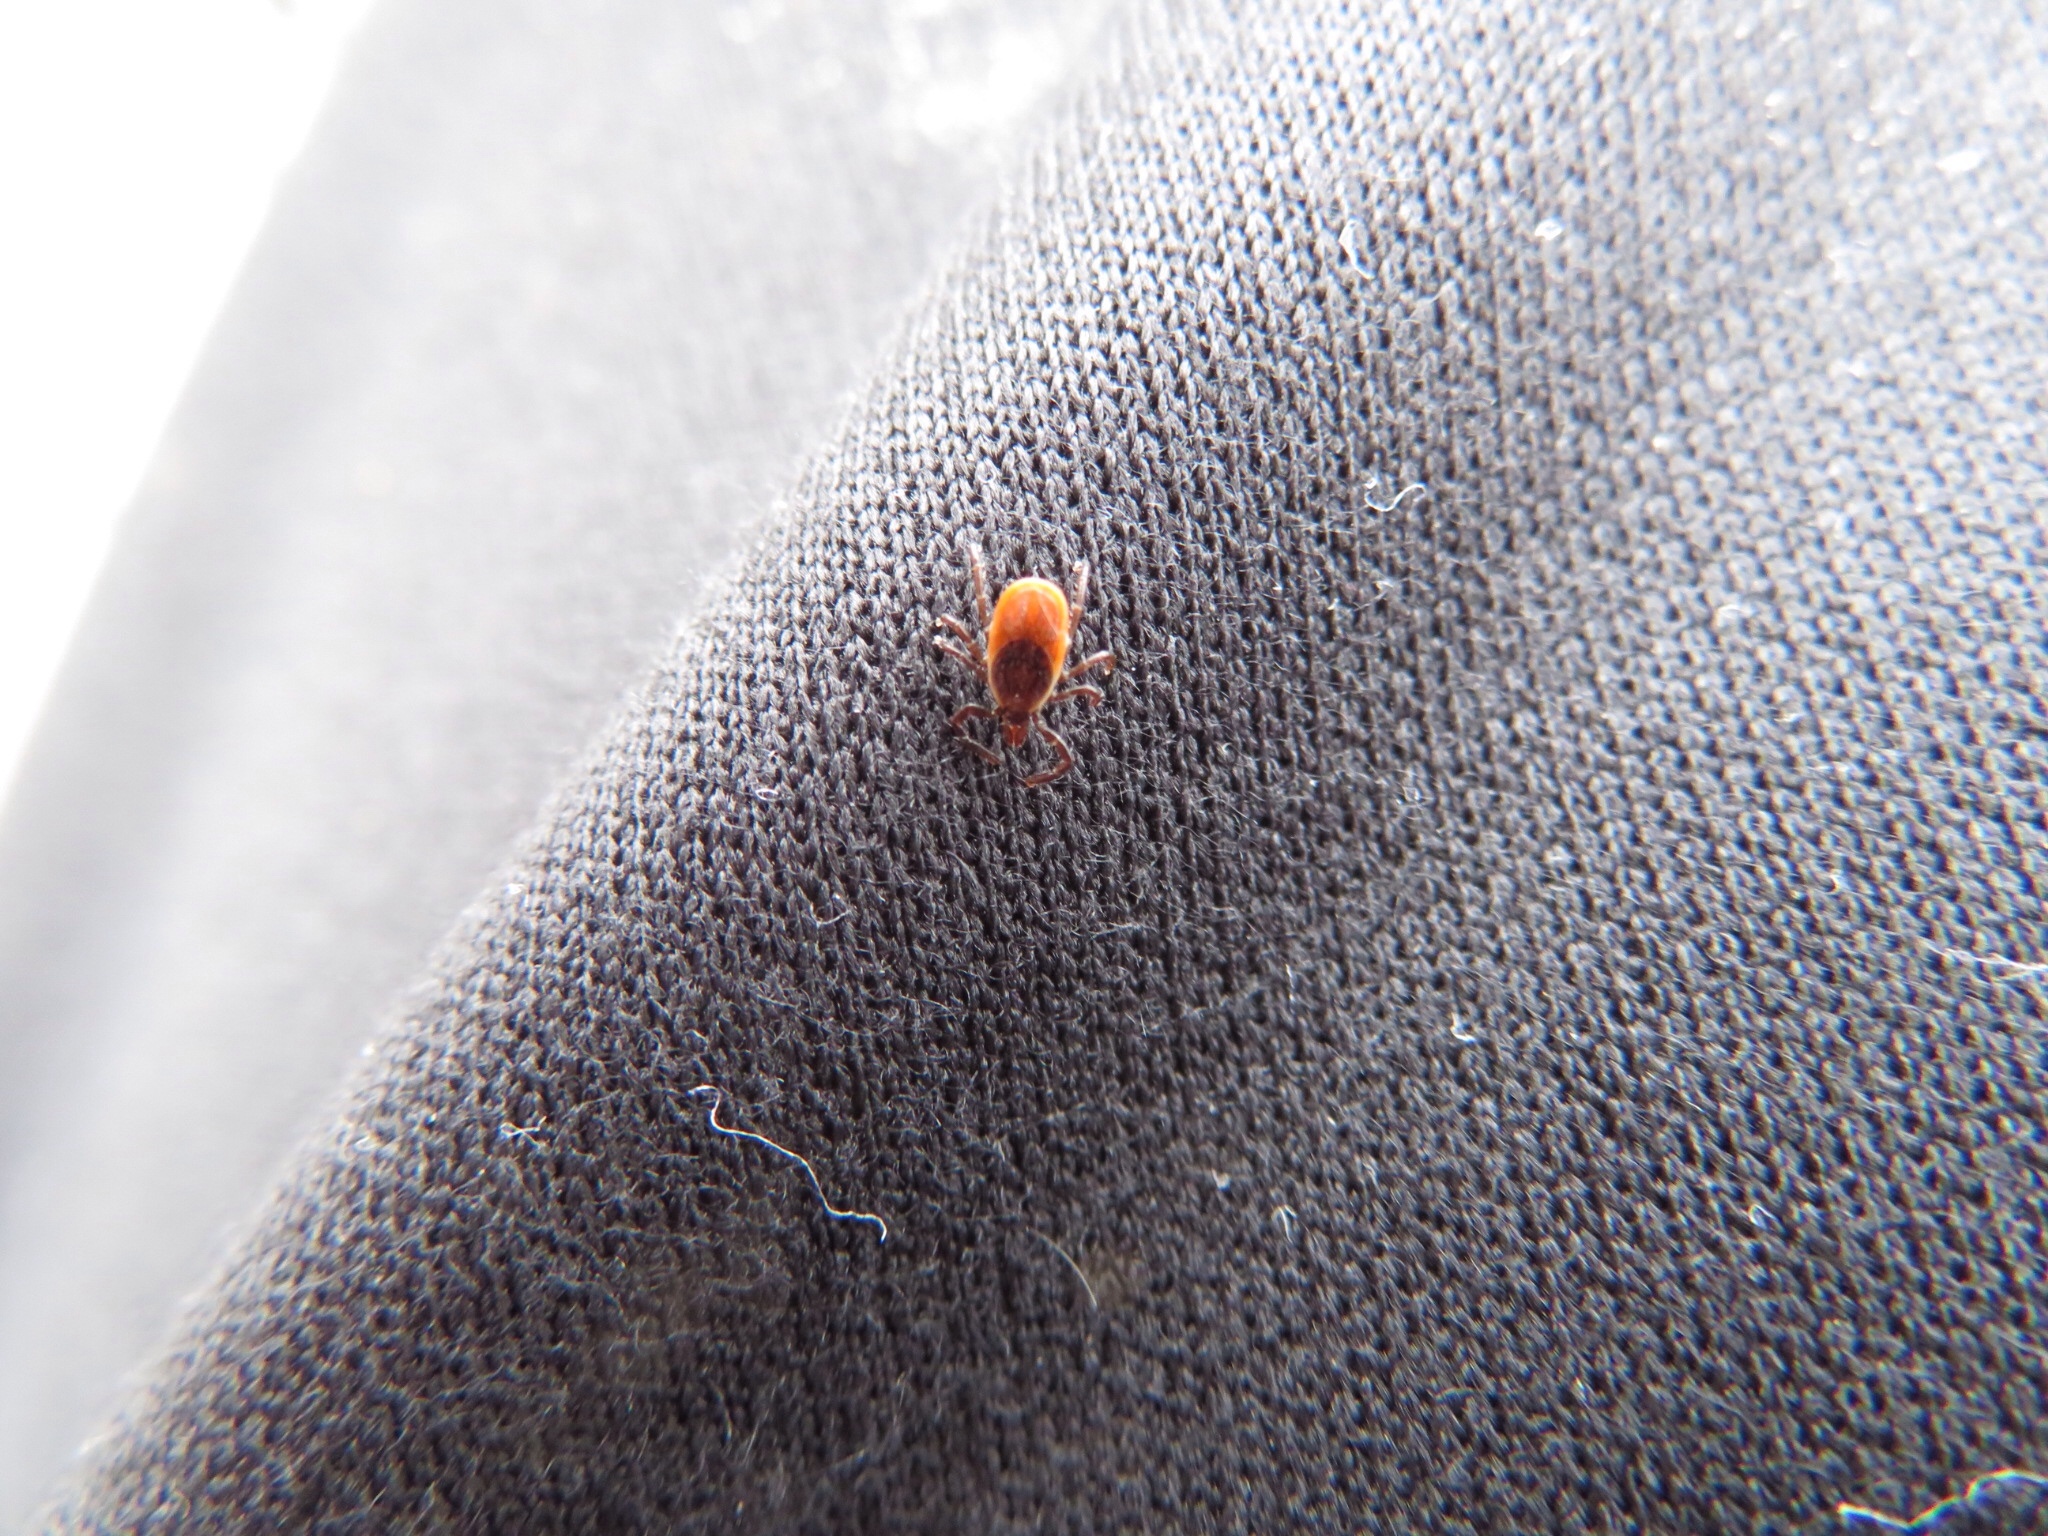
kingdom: Animalia
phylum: Arthropoda
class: Arachnida
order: Ixodida
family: Ixodidae
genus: Ixodes
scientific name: Ixodes scapularis
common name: Black legged tick
